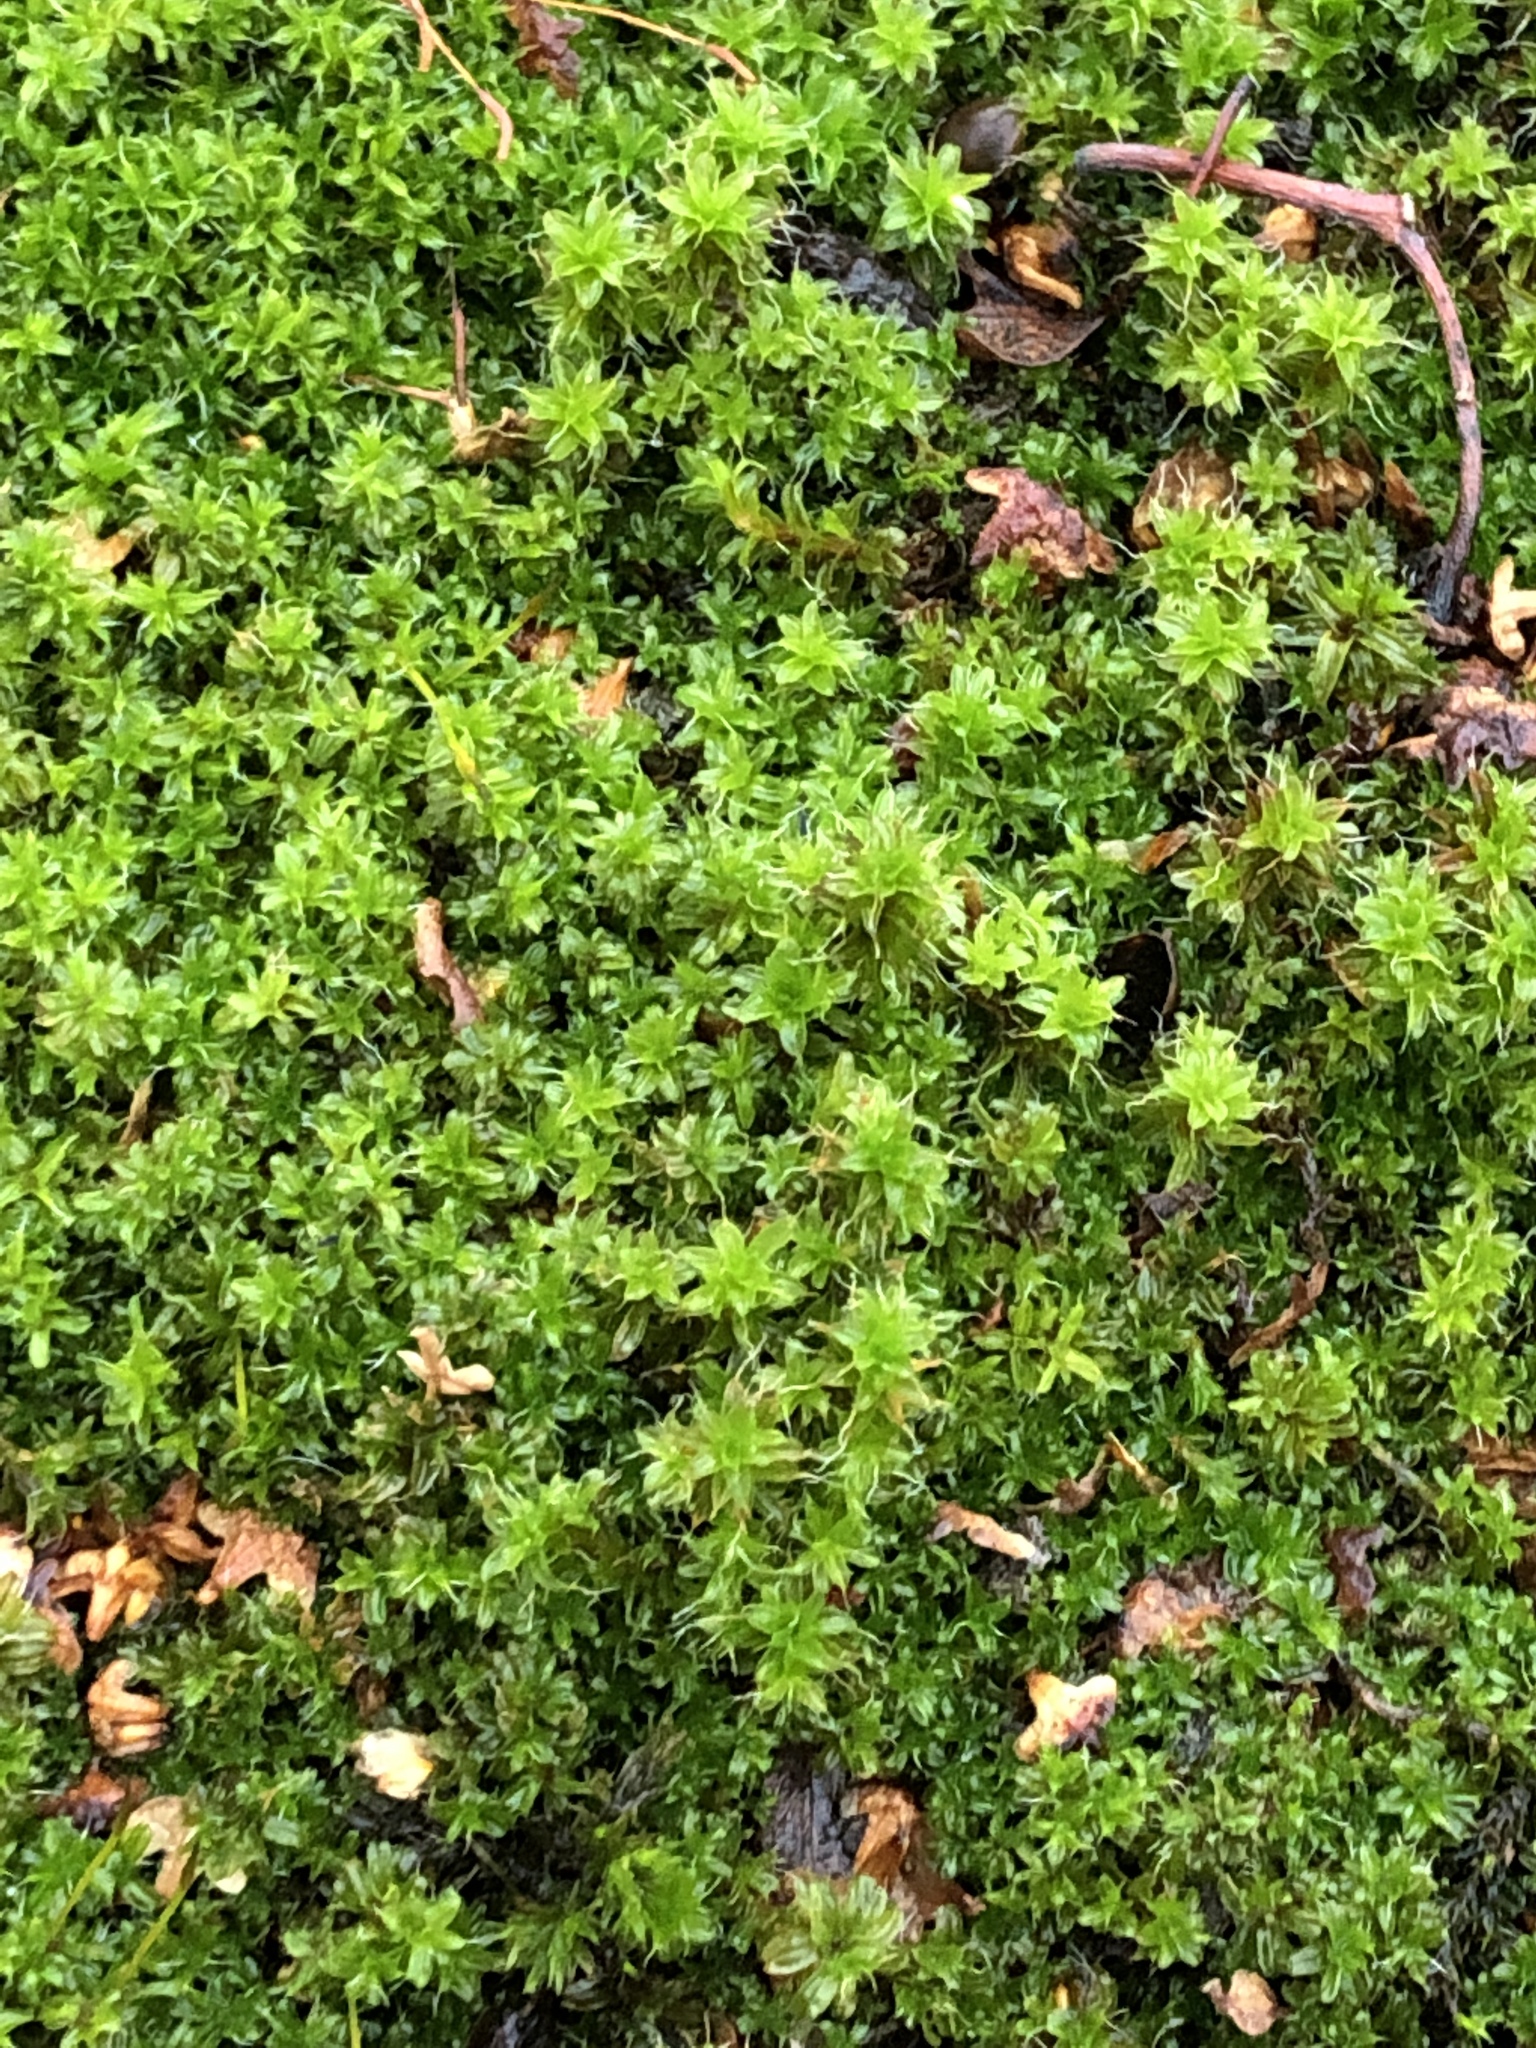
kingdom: Plantae
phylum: Bryophyta
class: Bryopsida
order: Pottiales
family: Pottiaceae
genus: Syntrichia
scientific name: Syntrichia ruralis
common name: Sidewalk screw moss
